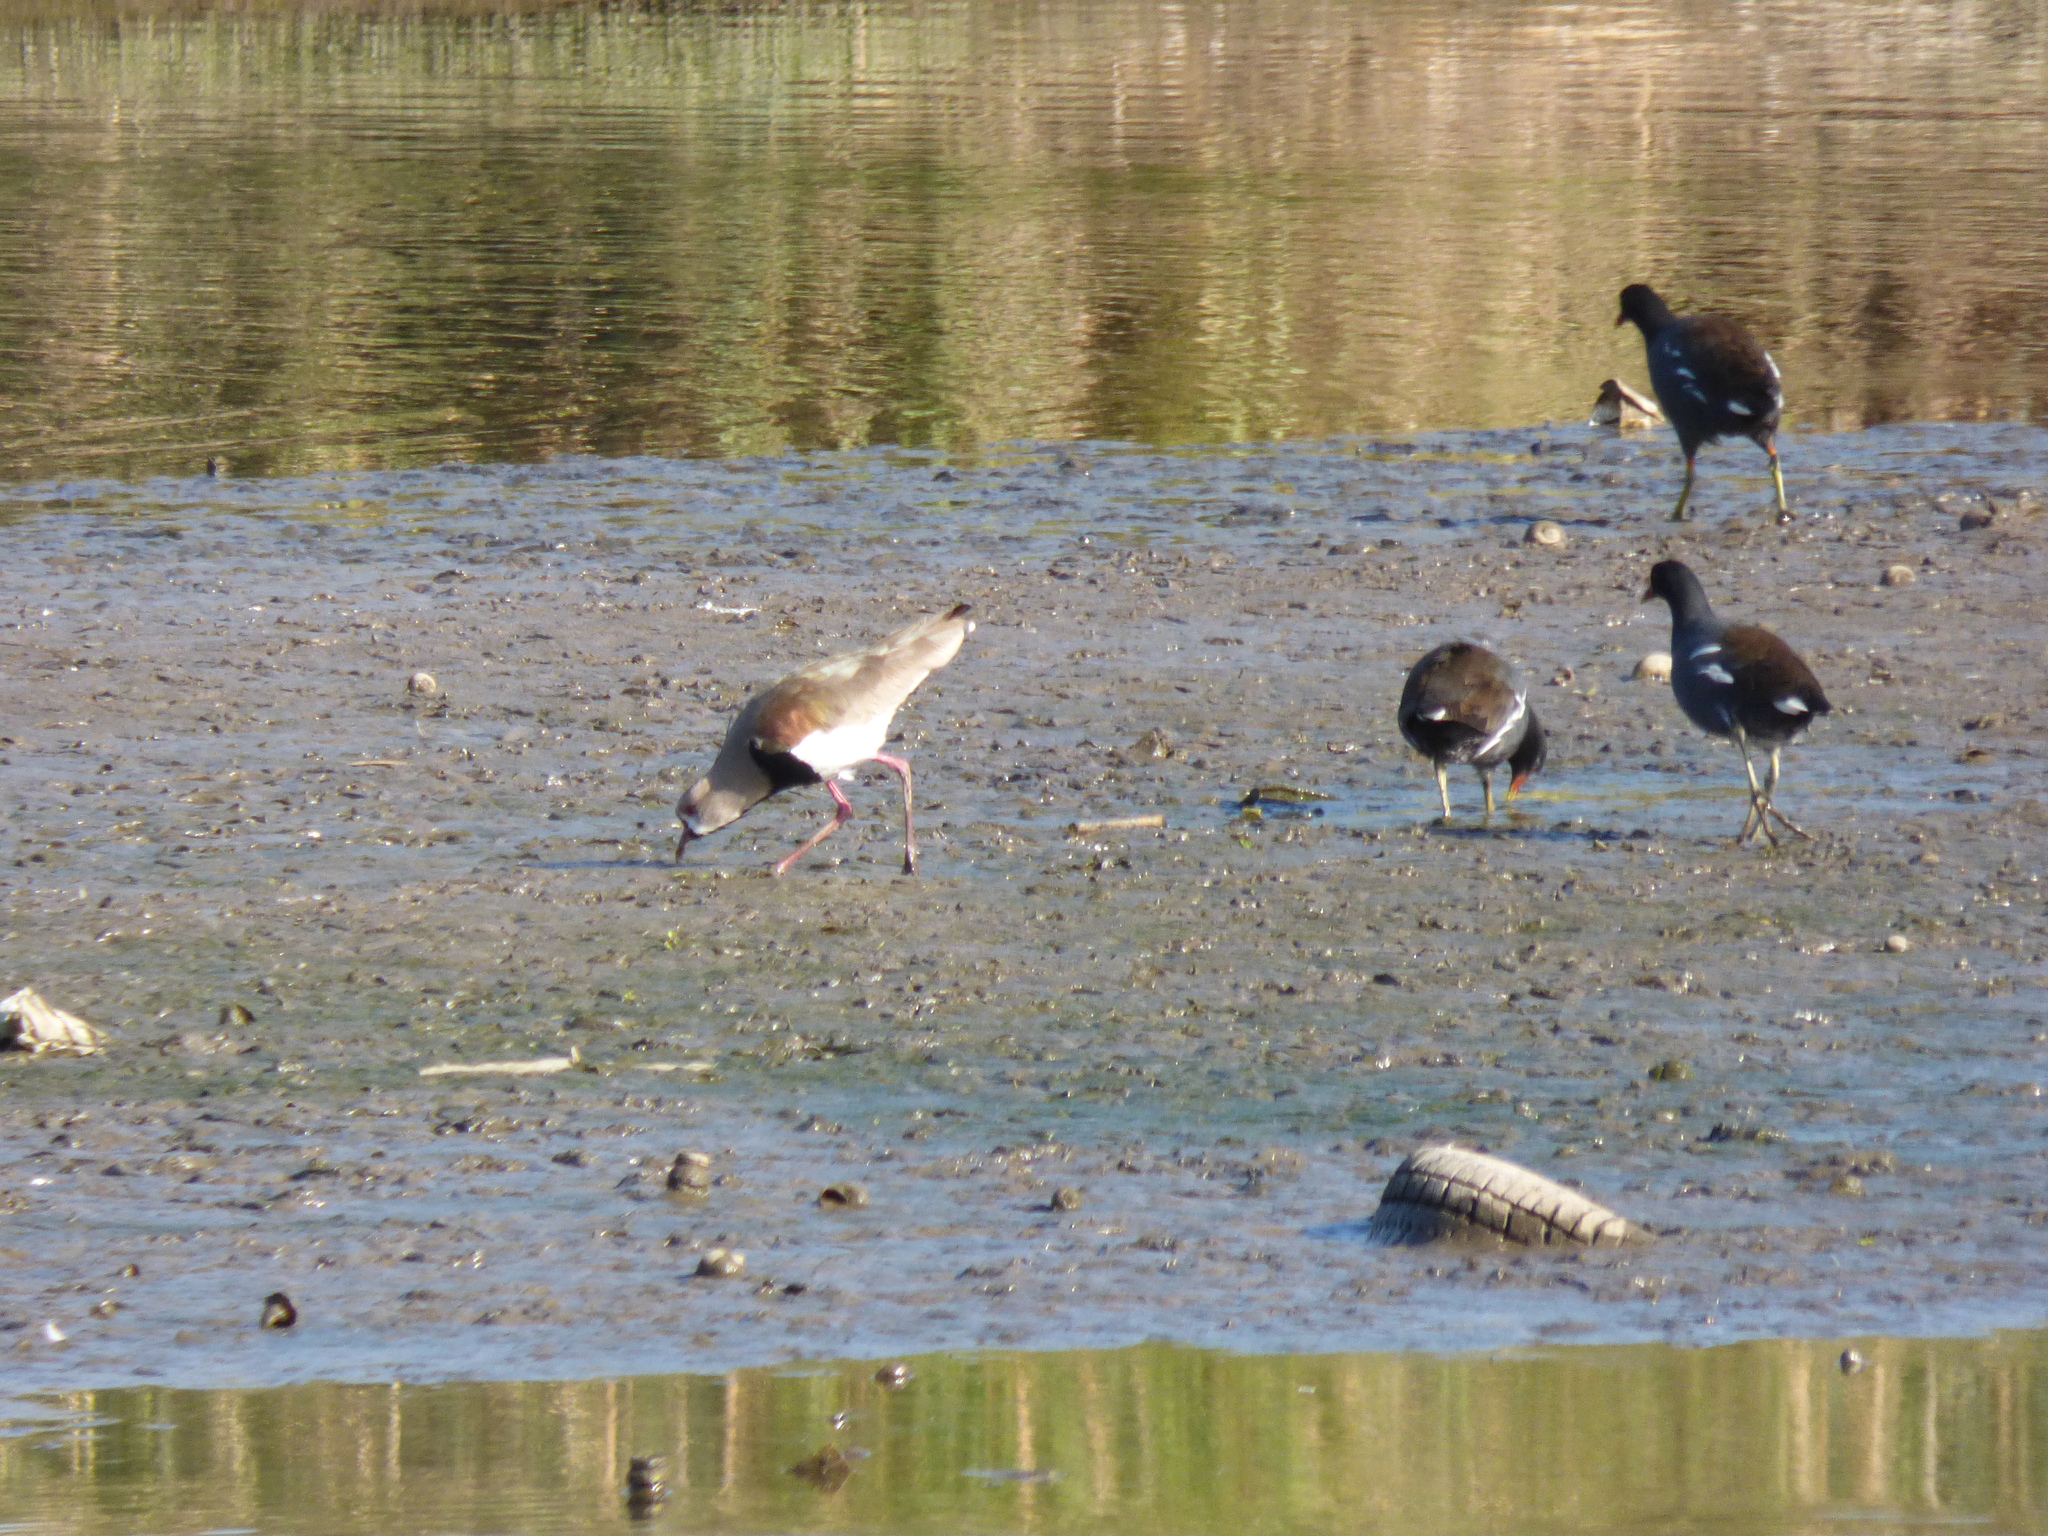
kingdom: Animalia
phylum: Chordata
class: Aves
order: Charadriiformes
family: Charadriidae
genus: Vanellus
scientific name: Vanellus chilensis
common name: Southern lapwing
